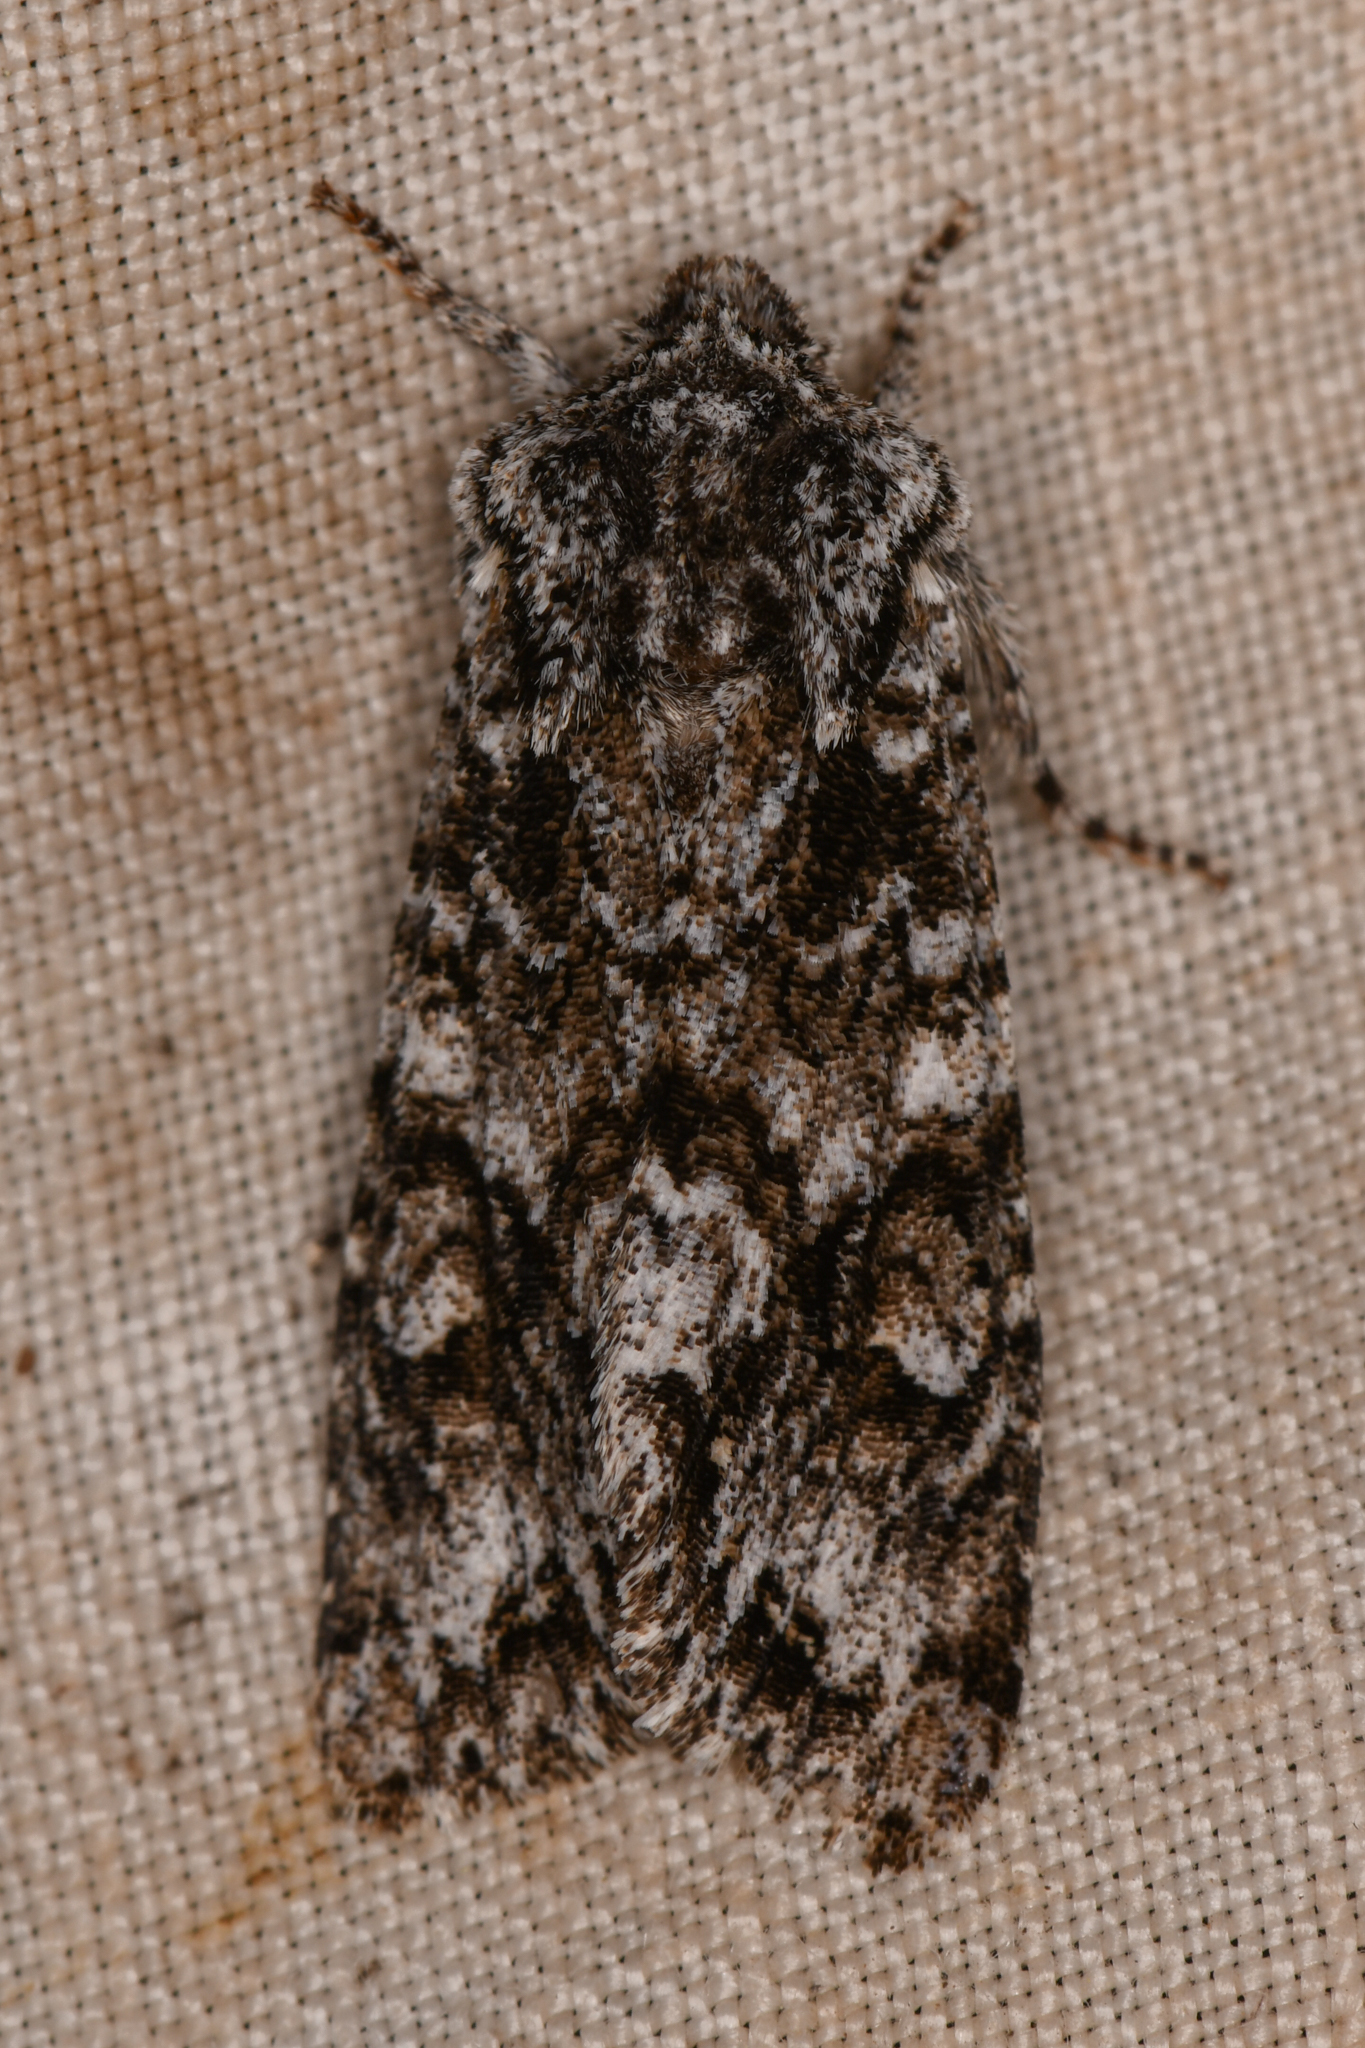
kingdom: Animalia
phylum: Arthropoda
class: Insecta
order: Lepidoptera
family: Noctuidae
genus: Egira
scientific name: Egira februalis
